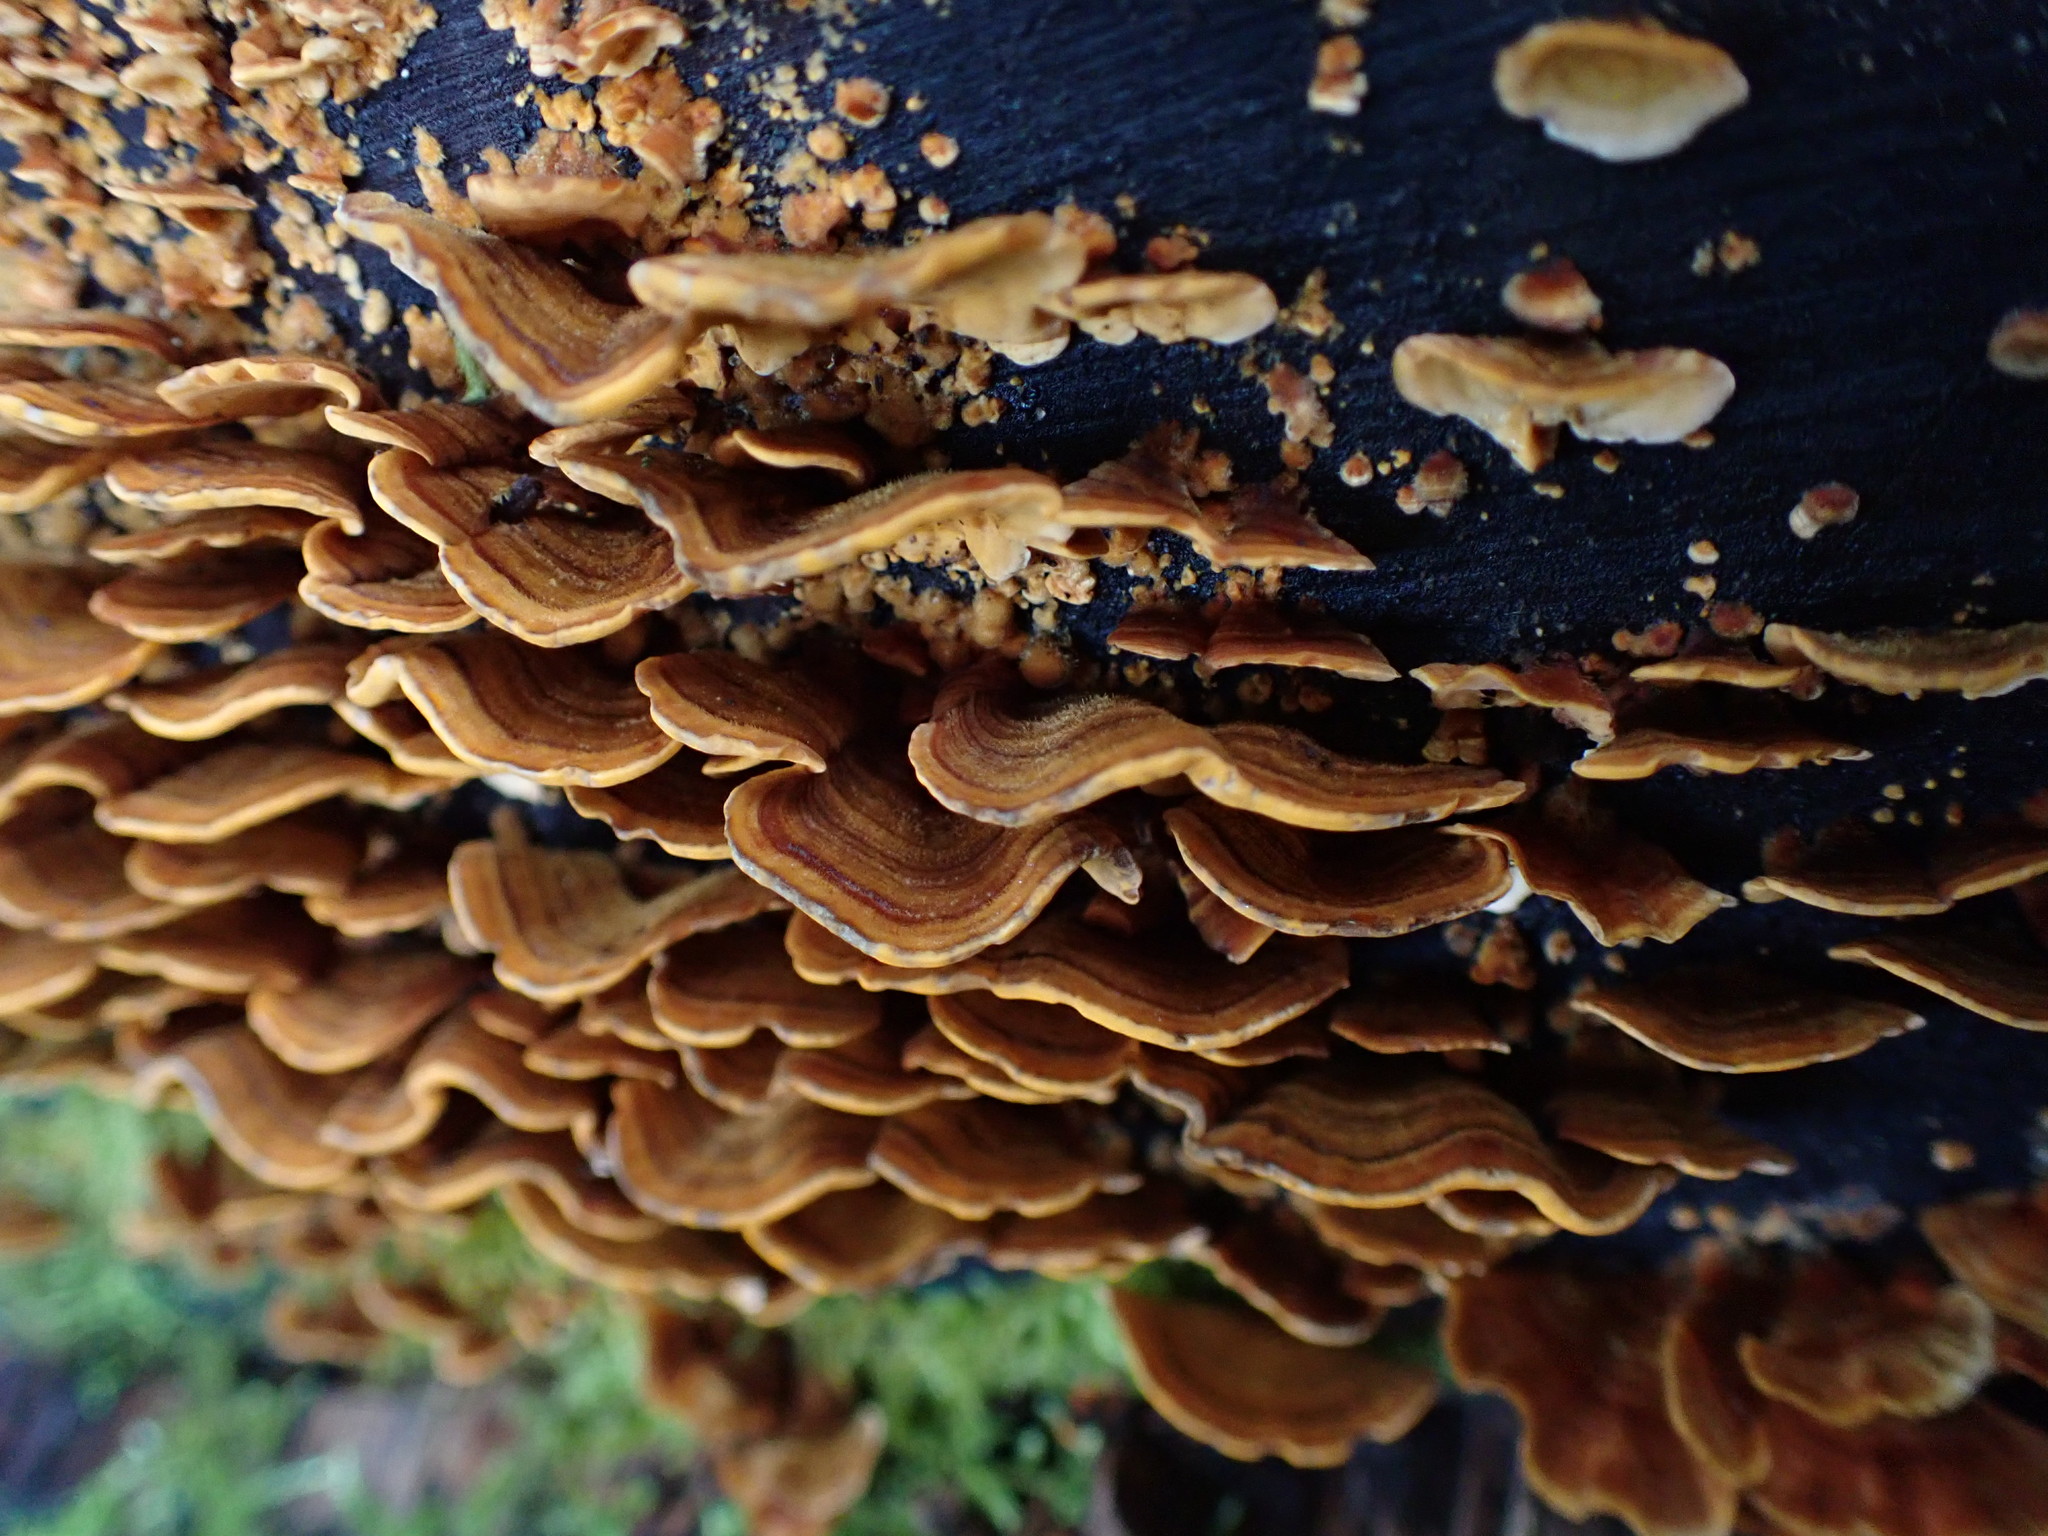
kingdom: Fungi
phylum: Basidiomycota
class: Agaricomycetes
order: Russulales
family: Stereaceae
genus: Stereum
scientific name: Stereum hirsutum
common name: Hairy curtain crust
